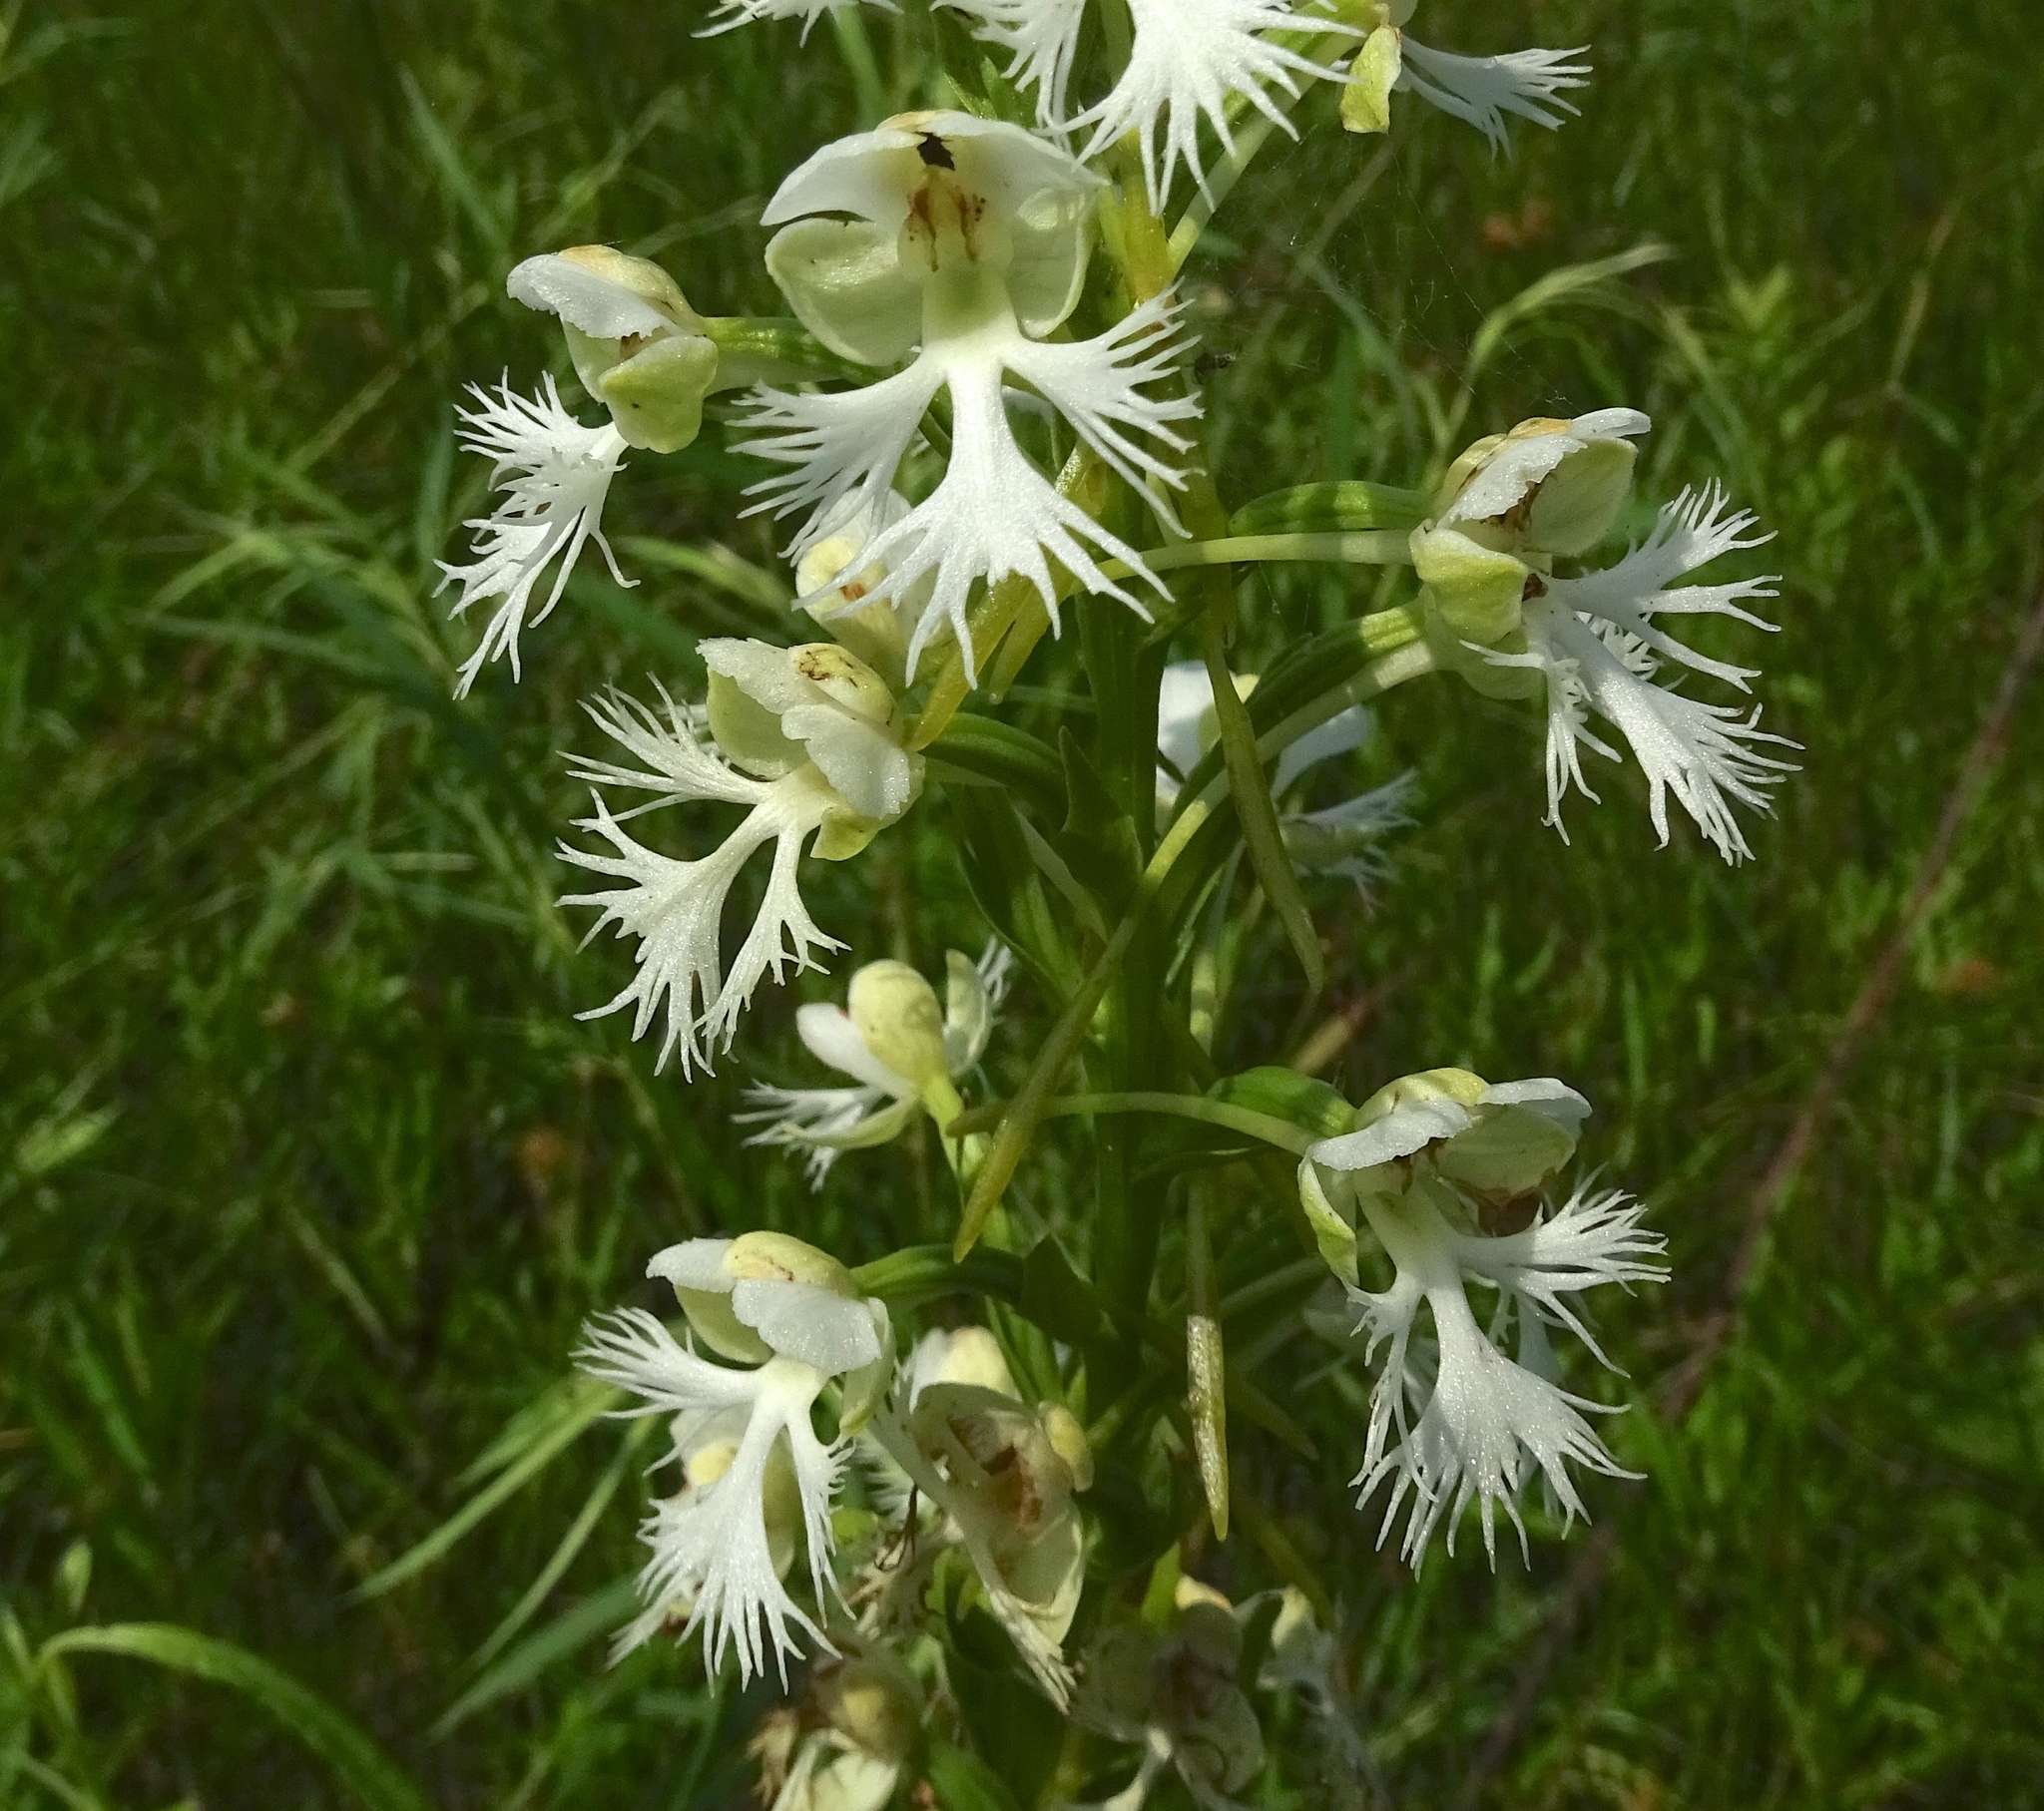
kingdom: Plantae
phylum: Tracheophyta
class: Liliopsida
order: Asparagales
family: Orchidaceae
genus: Platanthera
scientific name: Platanthera leucophaea
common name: Eastern prairie white-fringed orchid
